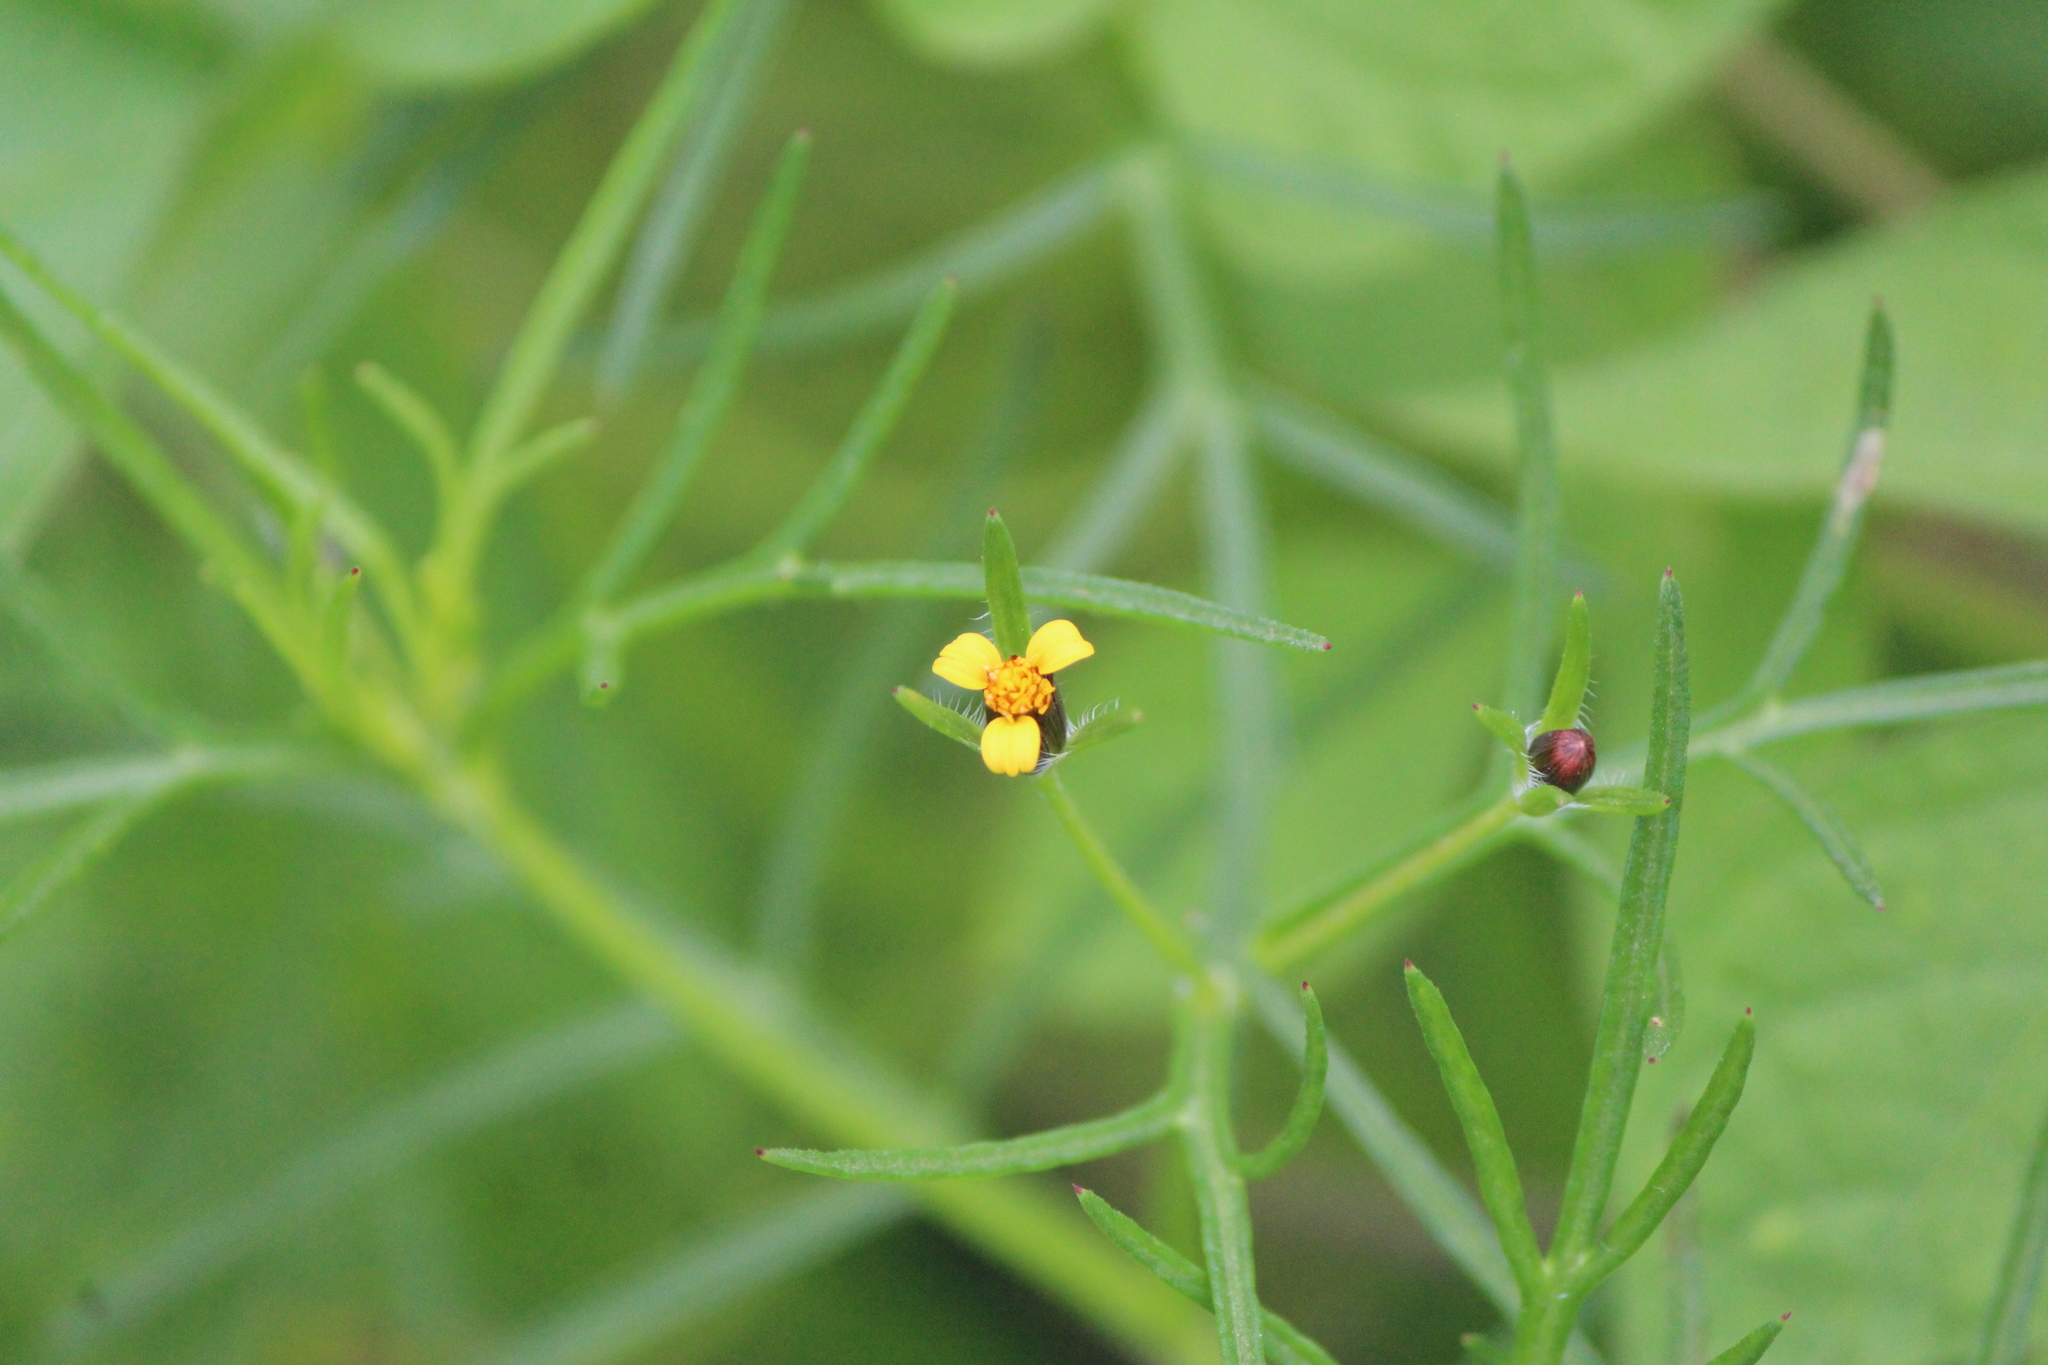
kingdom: Plantae
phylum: Tracheophyta
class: Magnoliopsida
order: Asterales
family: Asteraceae
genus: Heterosperma
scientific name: Heterosperma pinnatum
